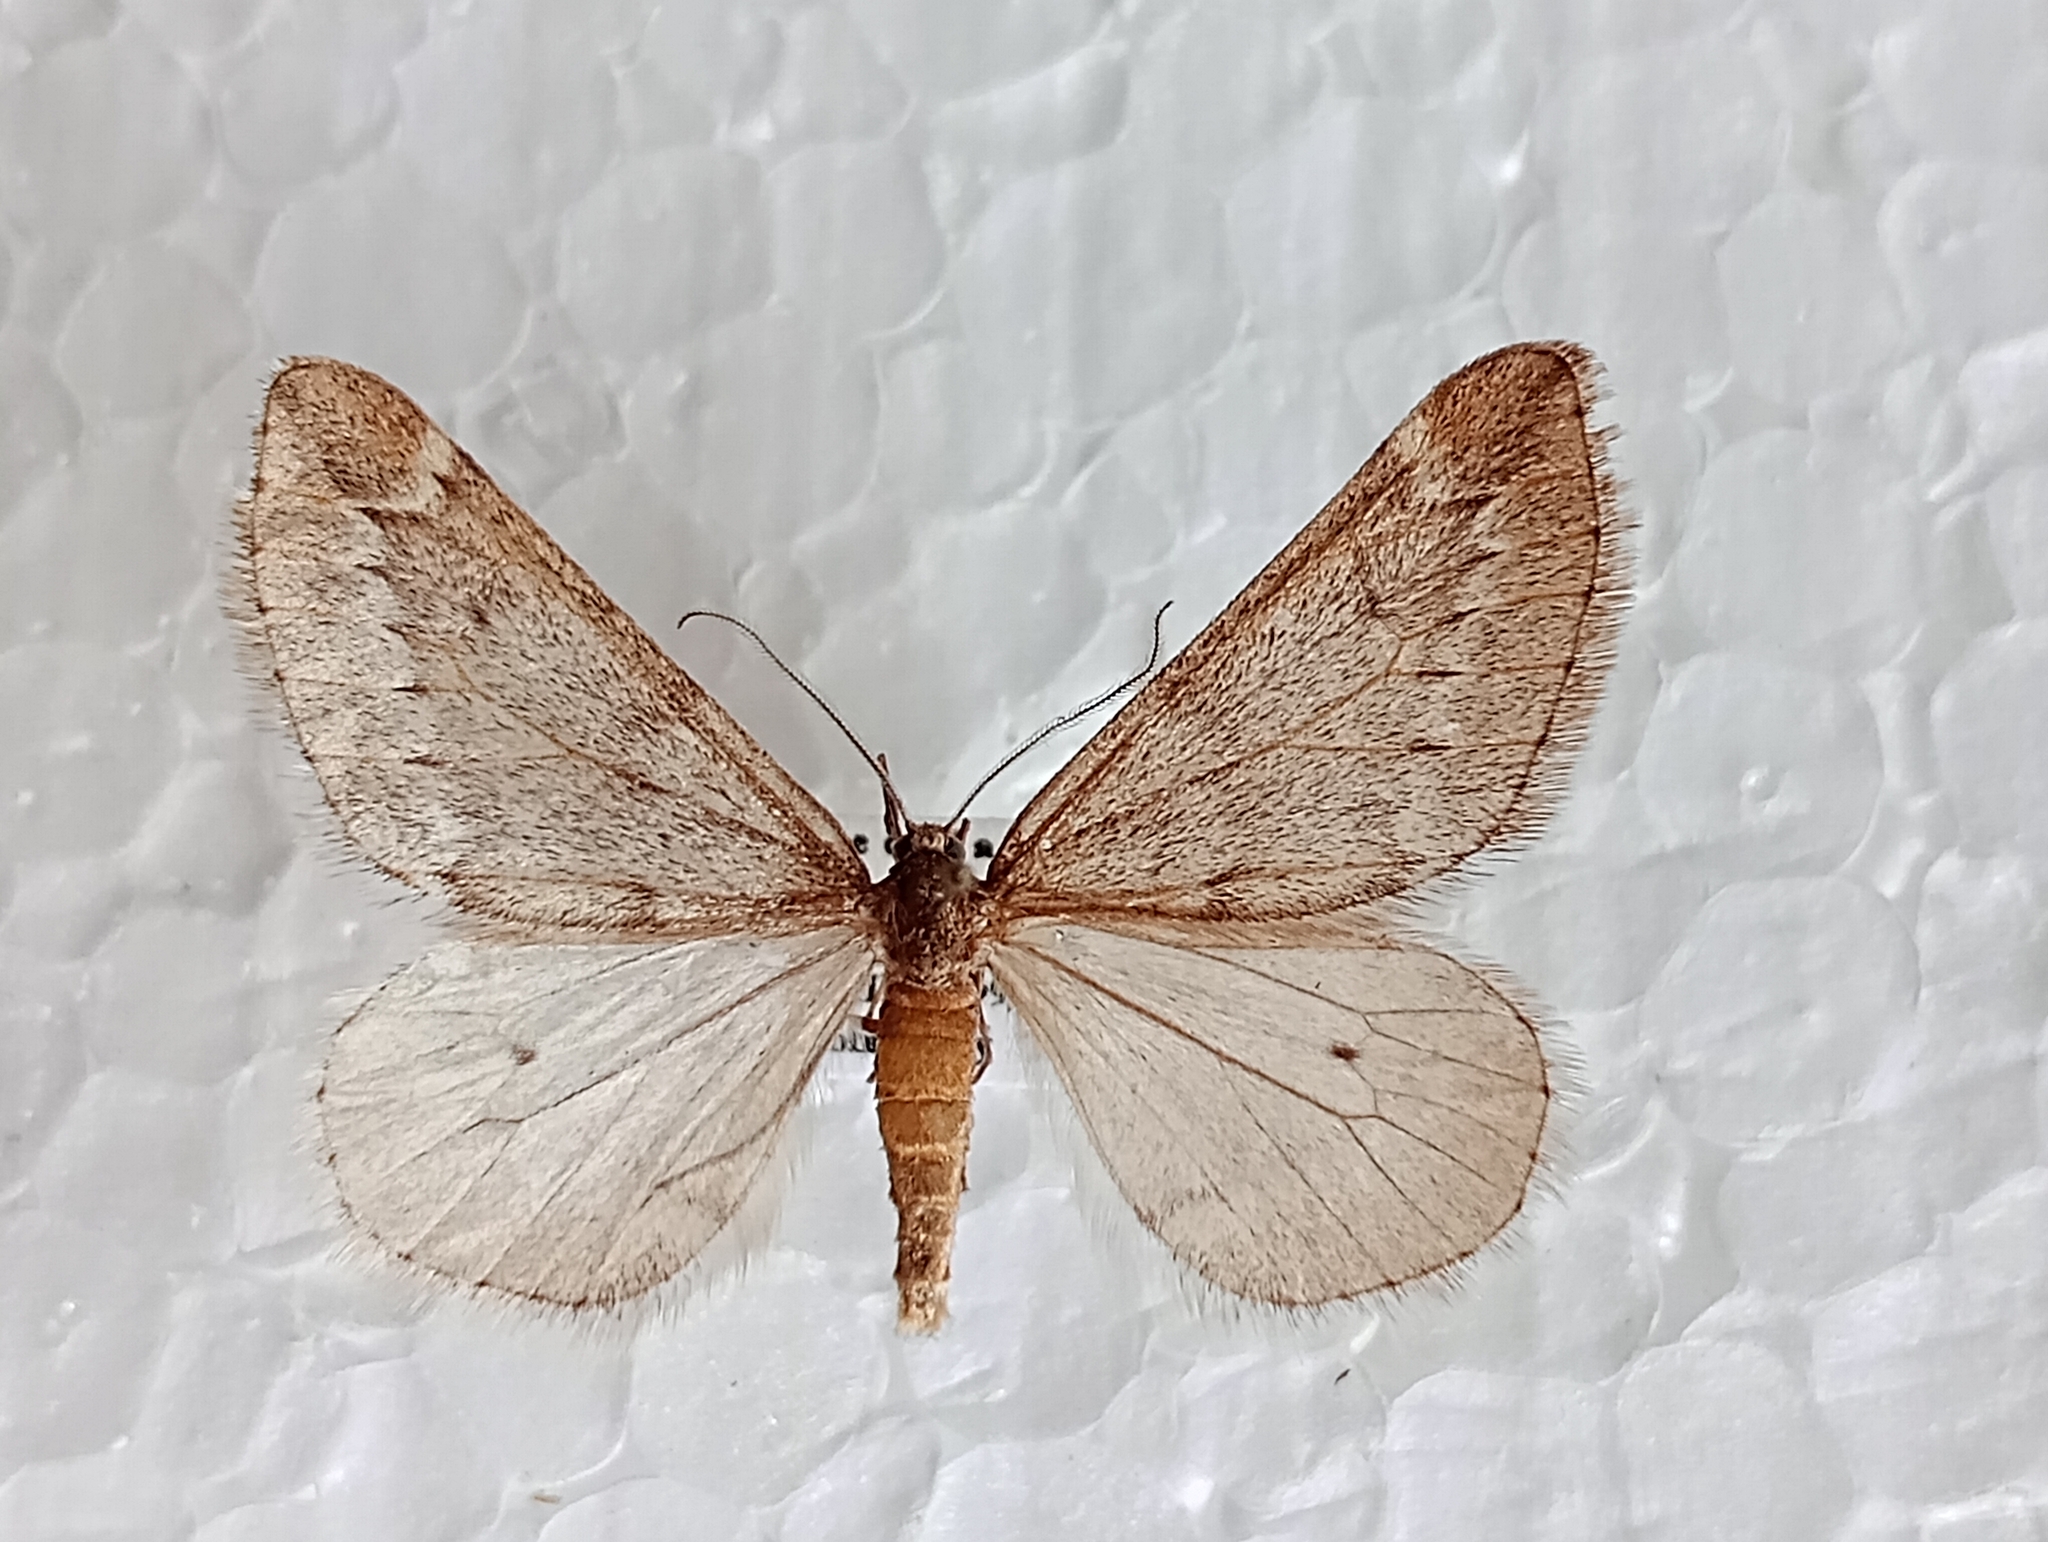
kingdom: Animalia
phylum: Arthropoda
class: Insecta
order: Lepidoptera
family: Geometridae
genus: Alsophila
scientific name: Alsophila aescularia
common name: March moth
